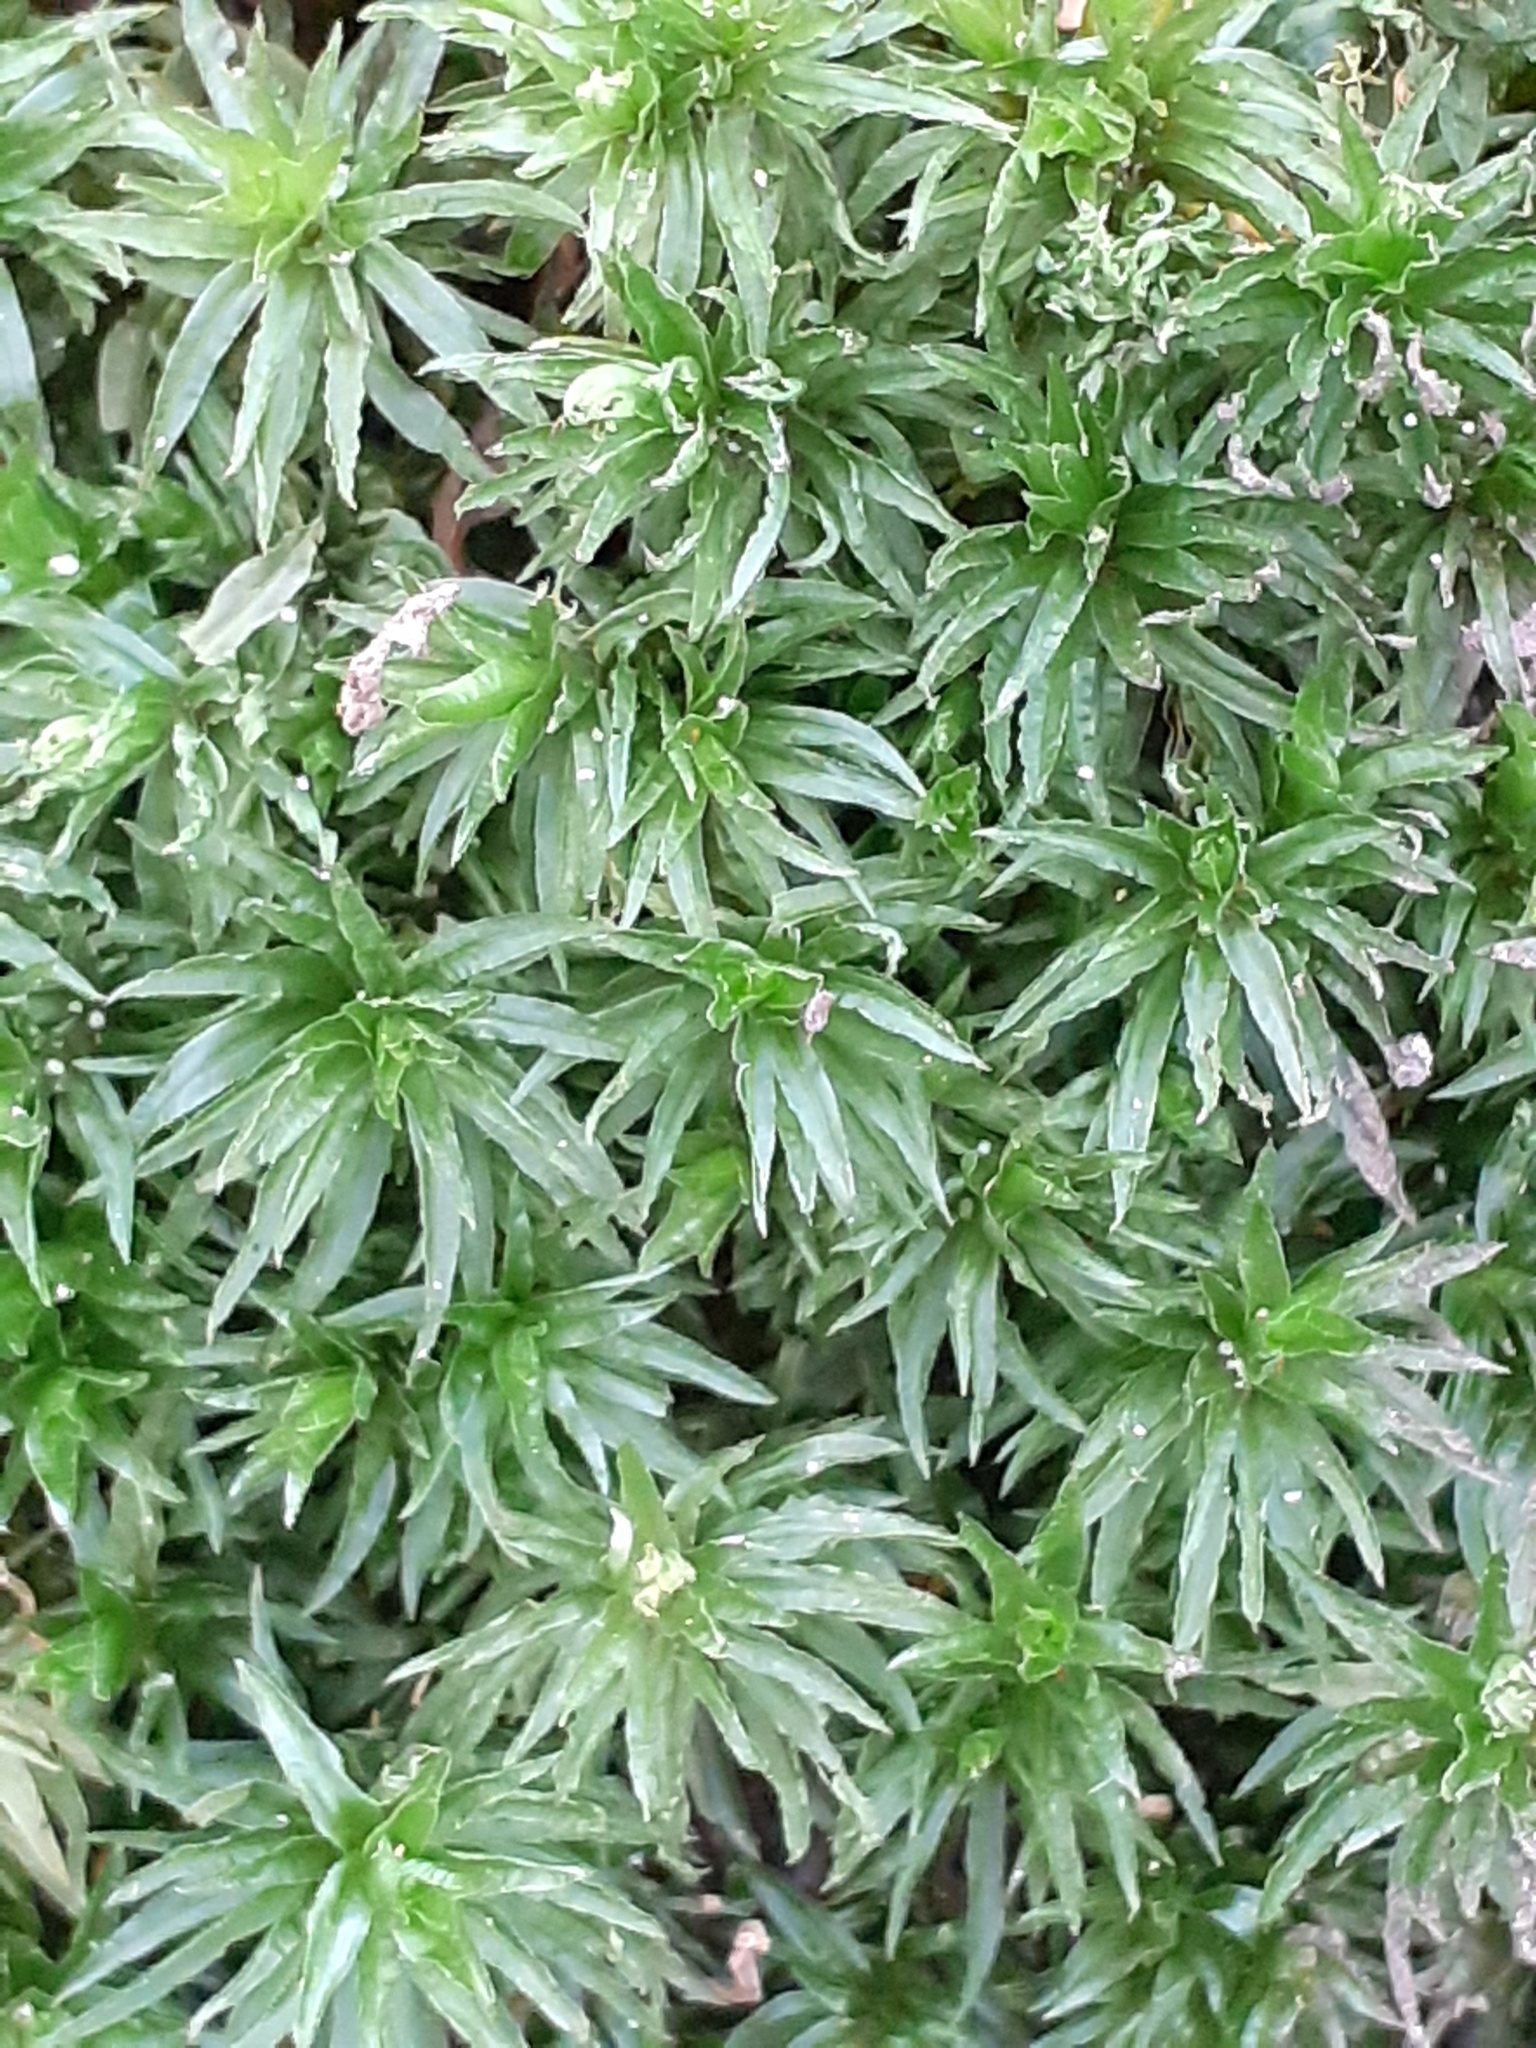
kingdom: Plantae
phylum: Bryophyta
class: Polytrichopsida
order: Polytrichales
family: Polytrichaceae
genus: Atrichum
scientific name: Atrichum undulatum
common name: Common smoothcap
